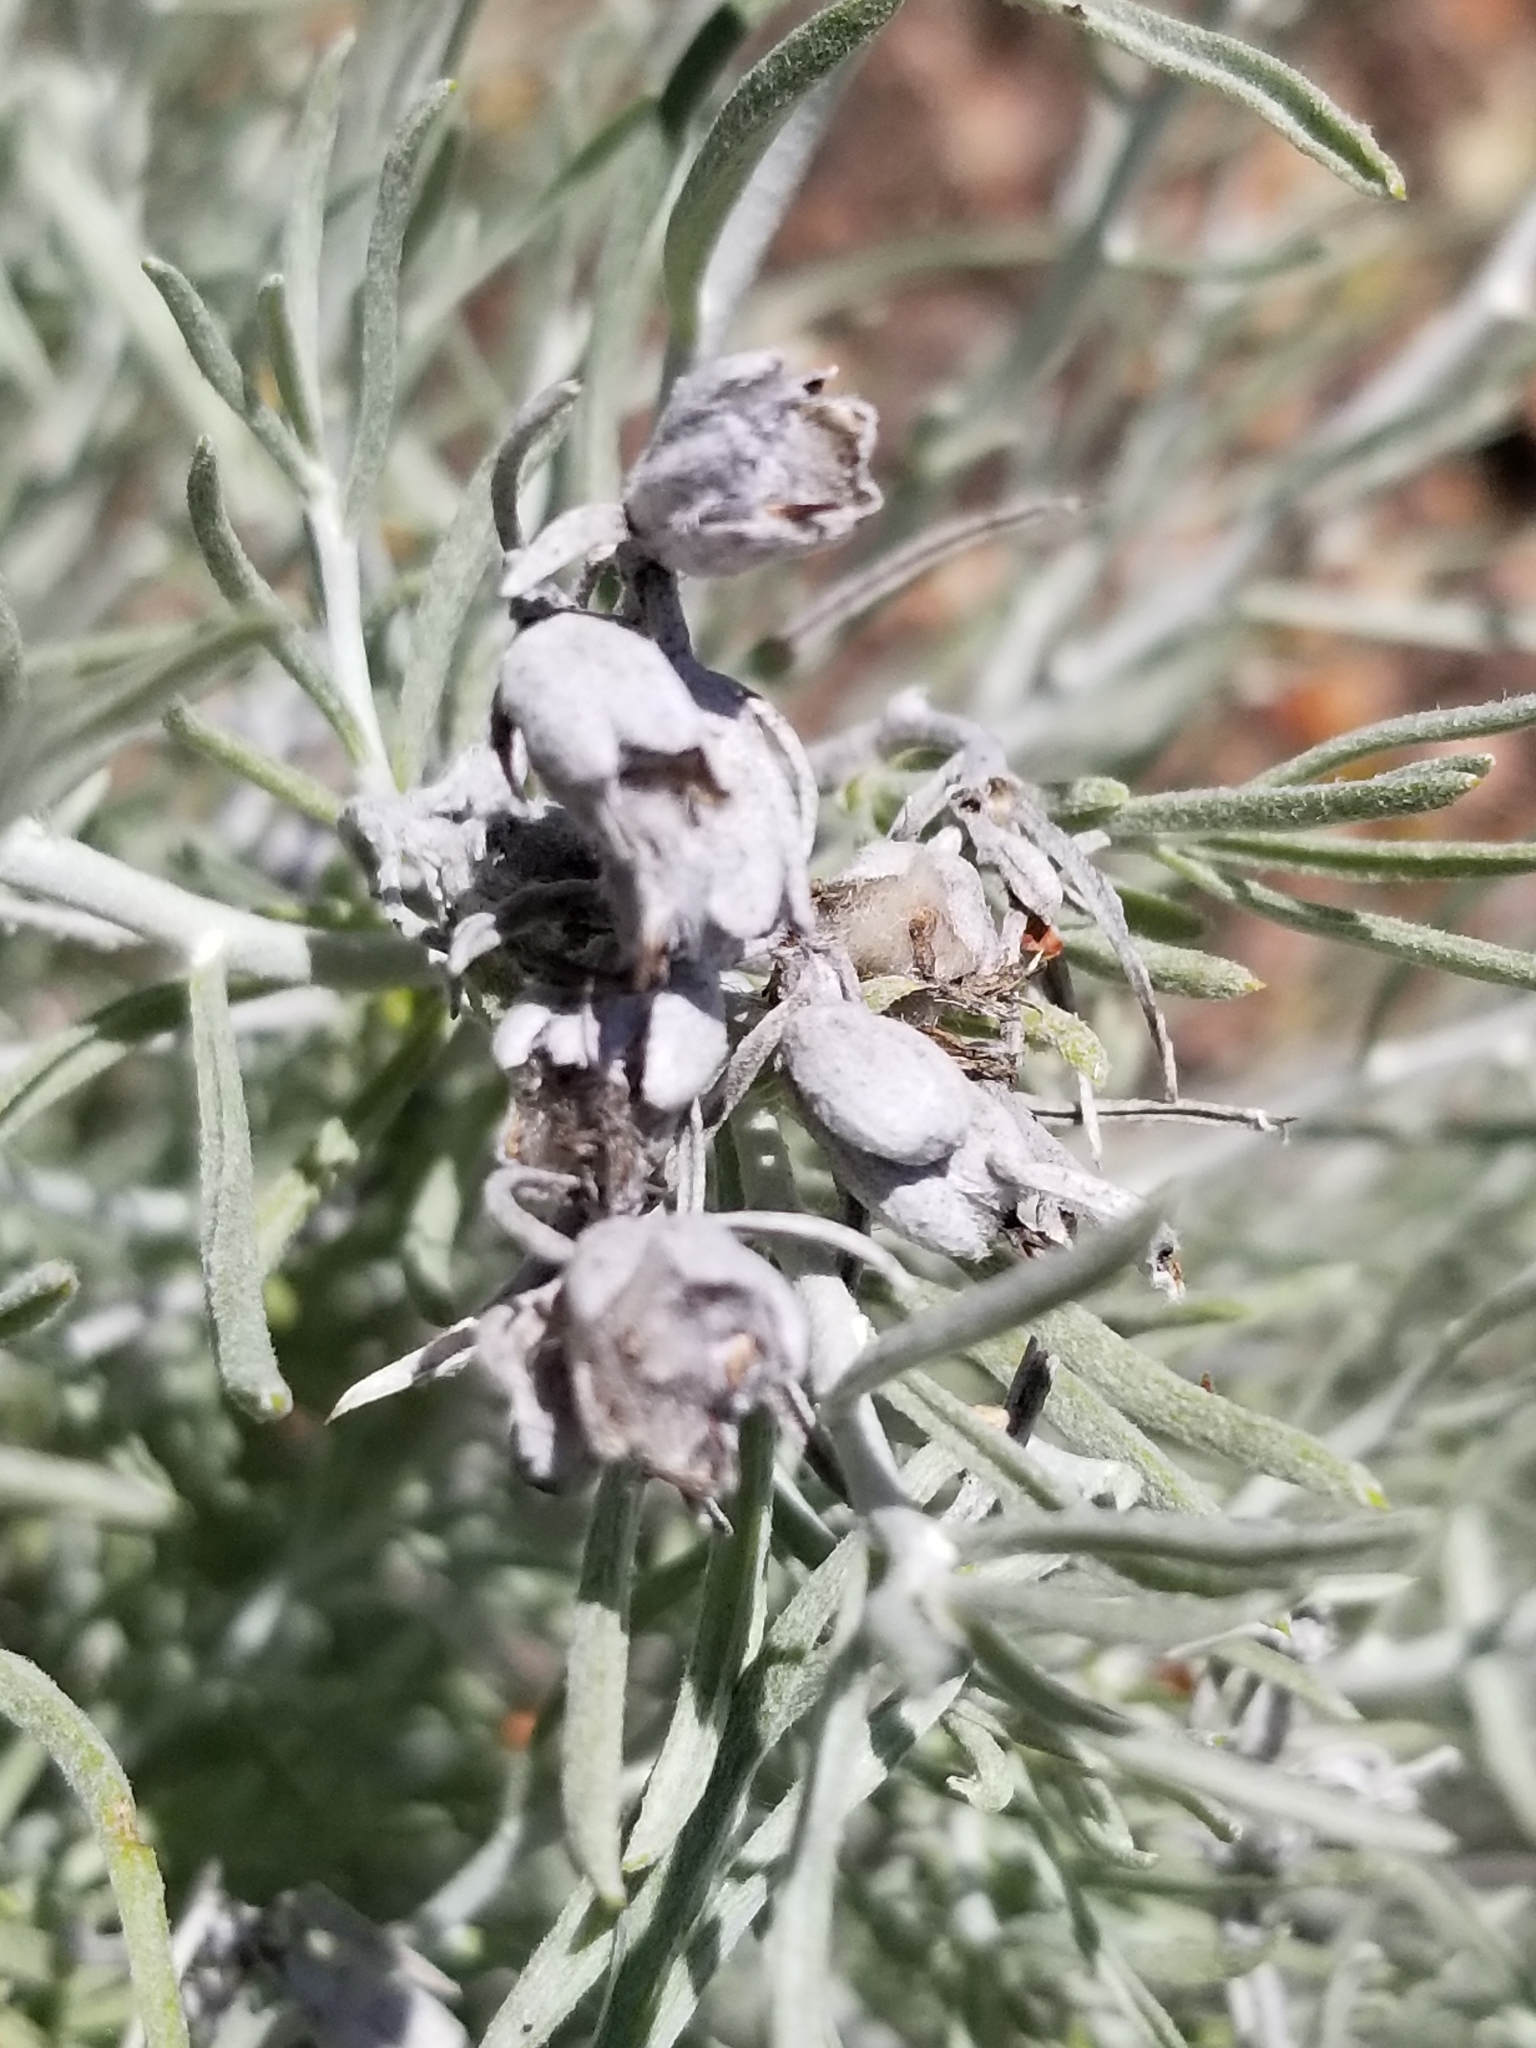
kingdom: Plantae
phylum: Tracheophyta
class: Magnoliopsida
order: Asterales
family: Asteraceae
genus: Tetradymia
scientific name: Tetradymia comosa
